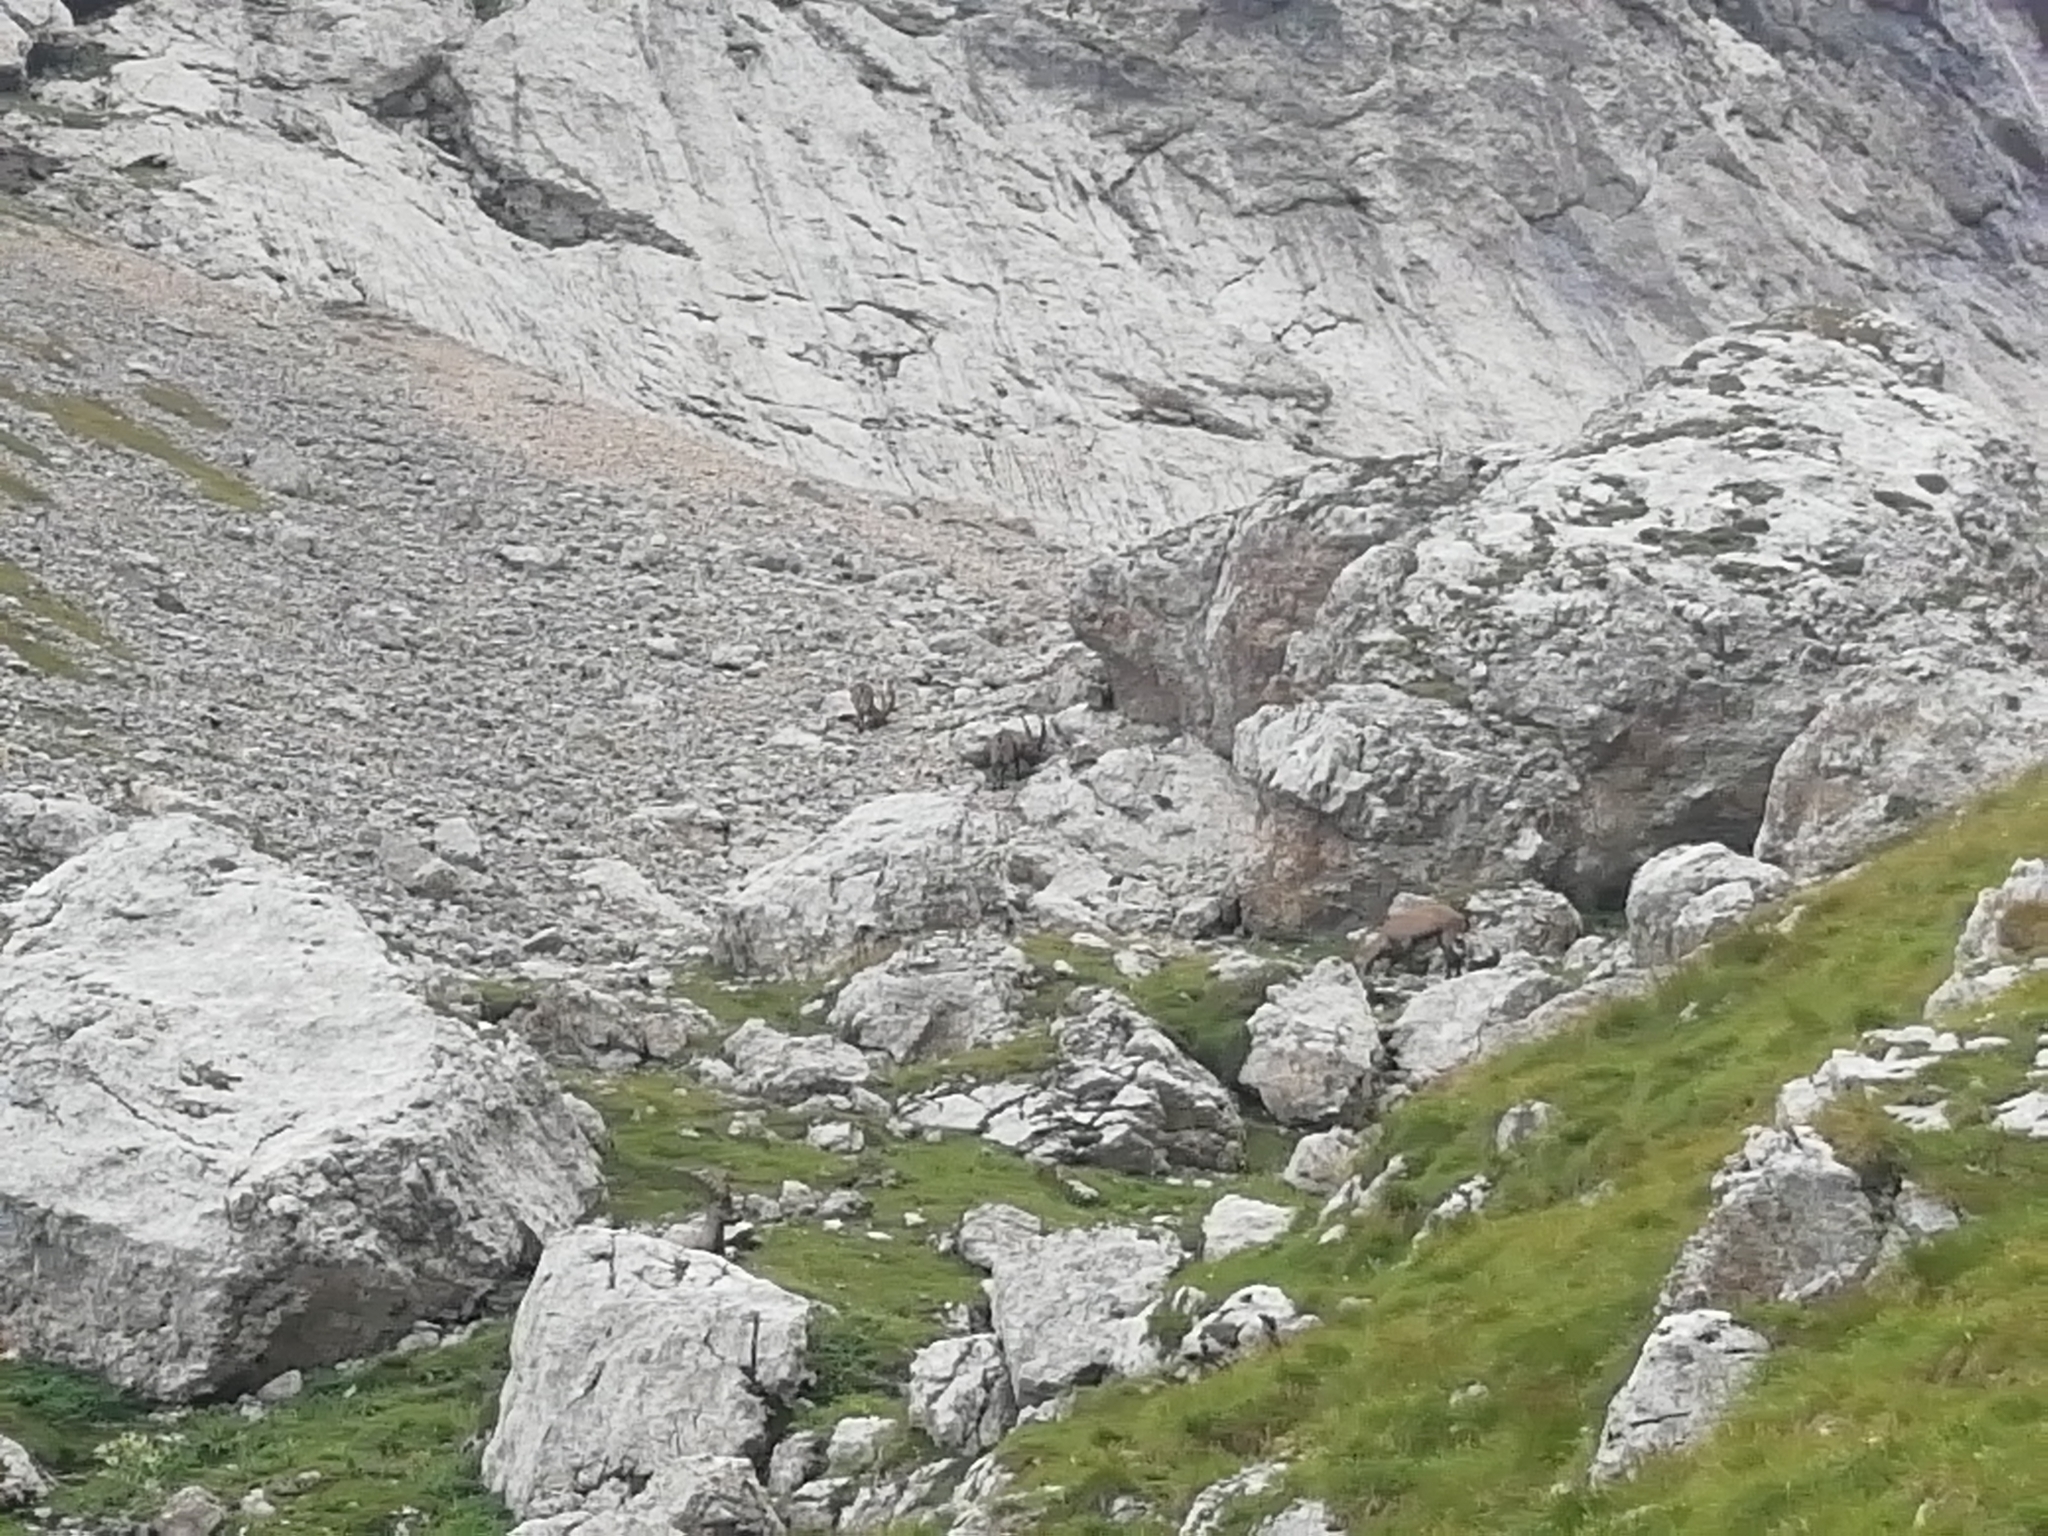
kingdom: Animalia
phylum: Chordata
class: Mammalia
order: Artiodactyla
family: Bovidae
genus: Capra
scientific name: Capra ibex
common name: Alpine ibex
